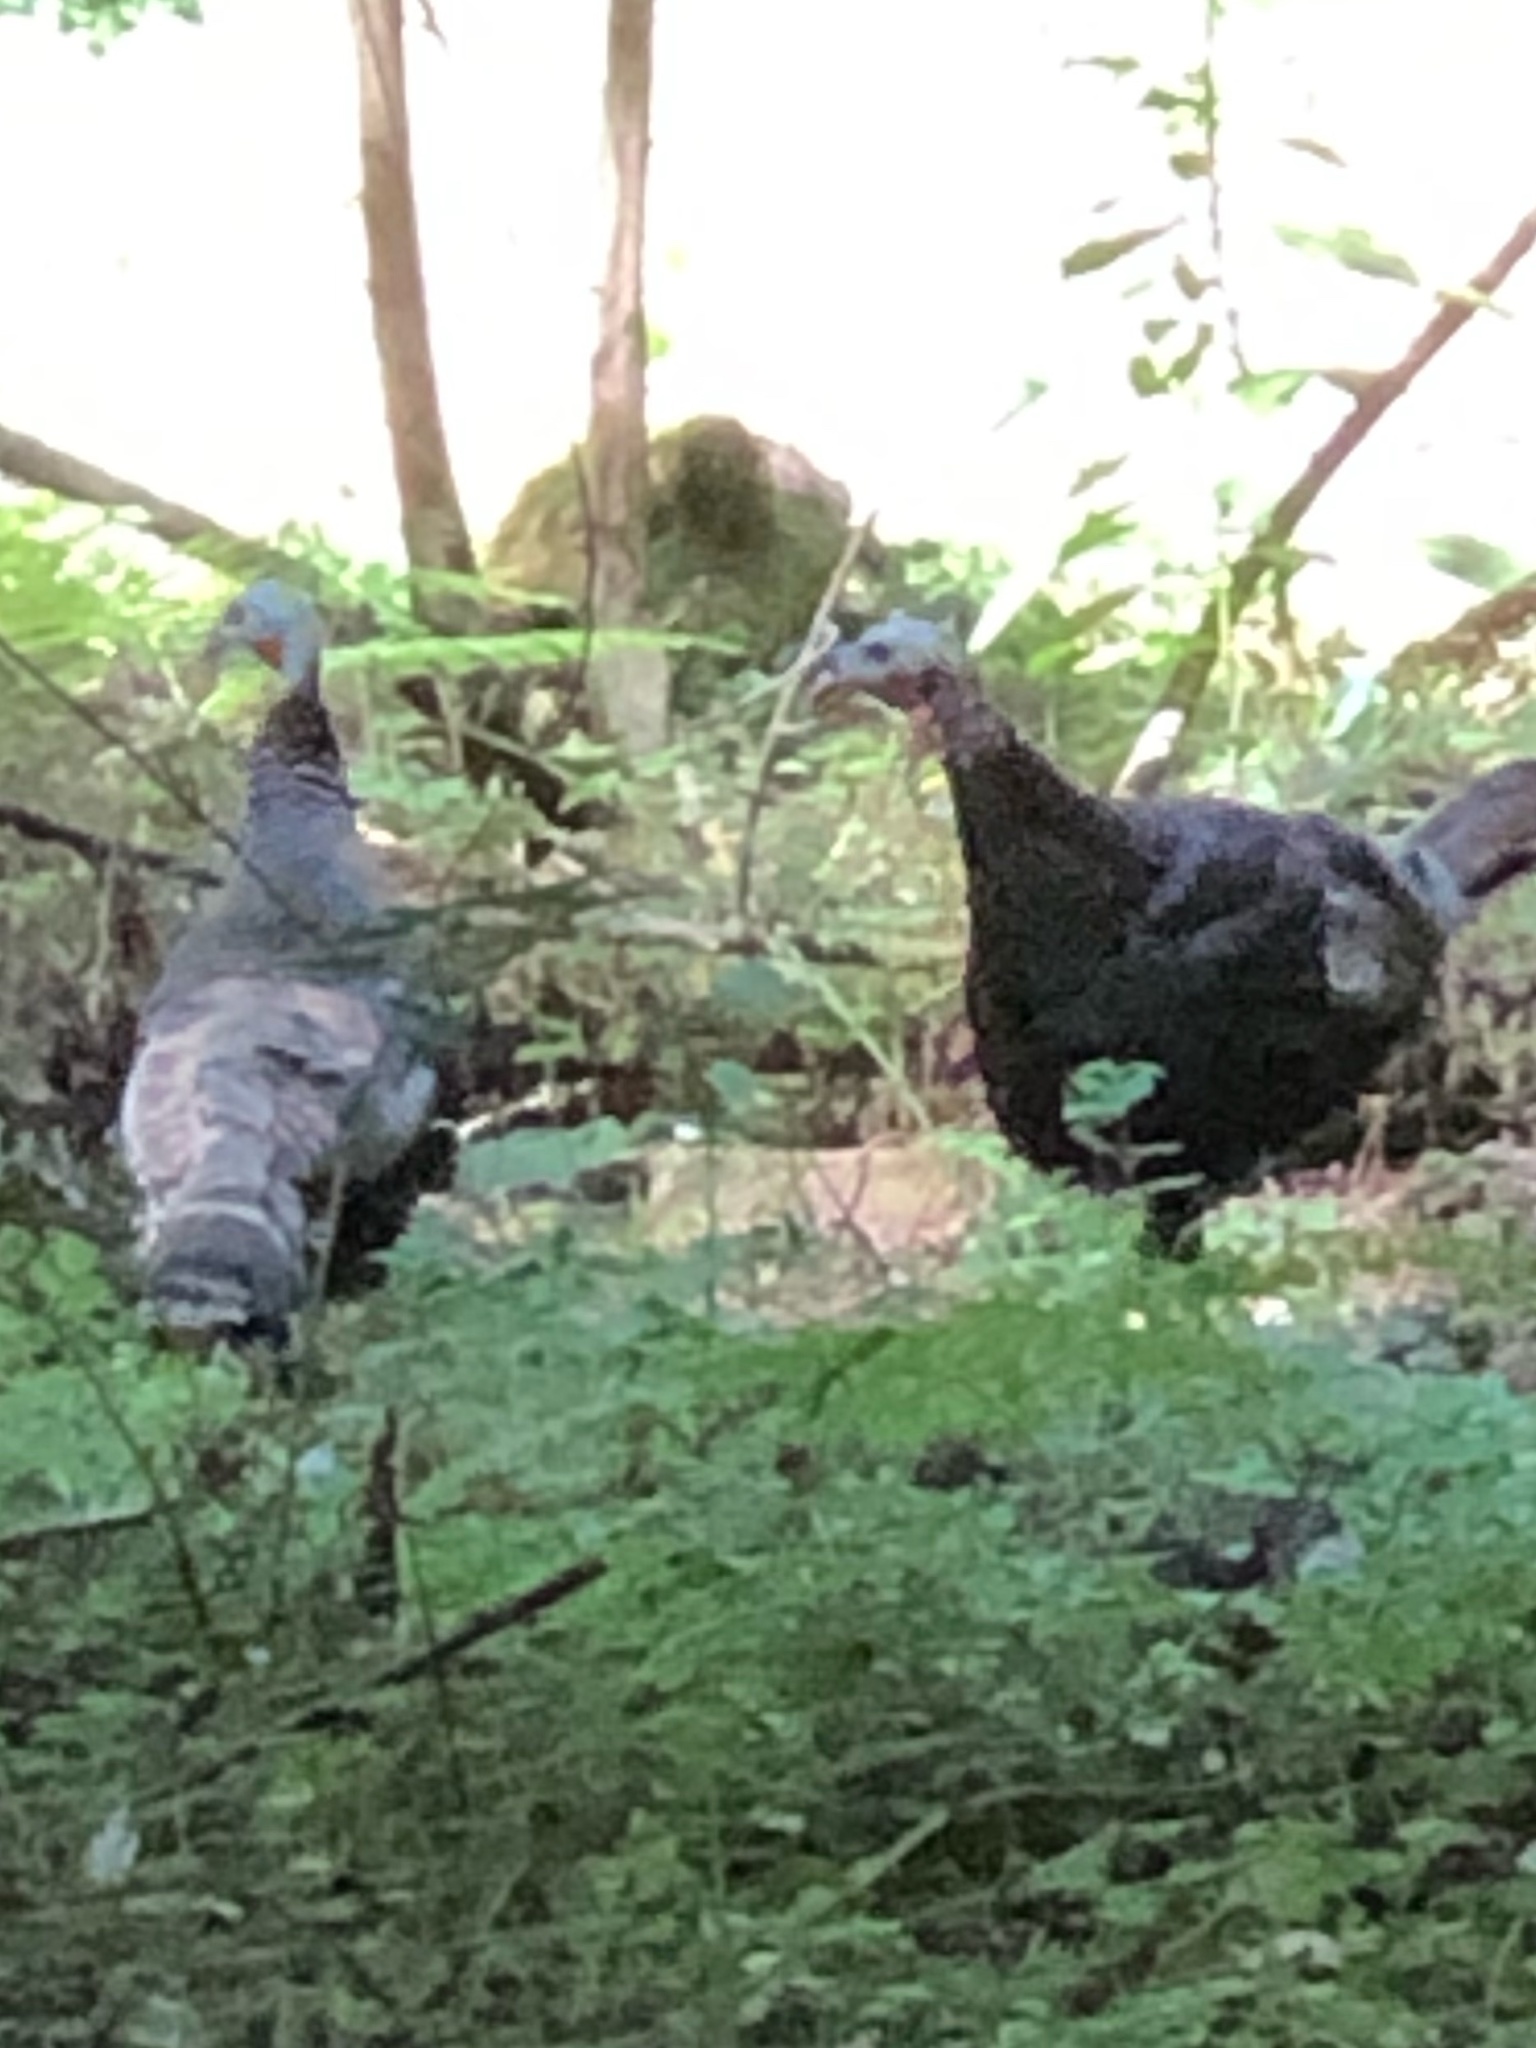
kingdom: Animalia
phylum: Chordata
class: Aves
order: Galliformes
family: Phasianidae
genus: Meleagris
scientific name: Meleagris gallopavo
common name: Wild turkey
